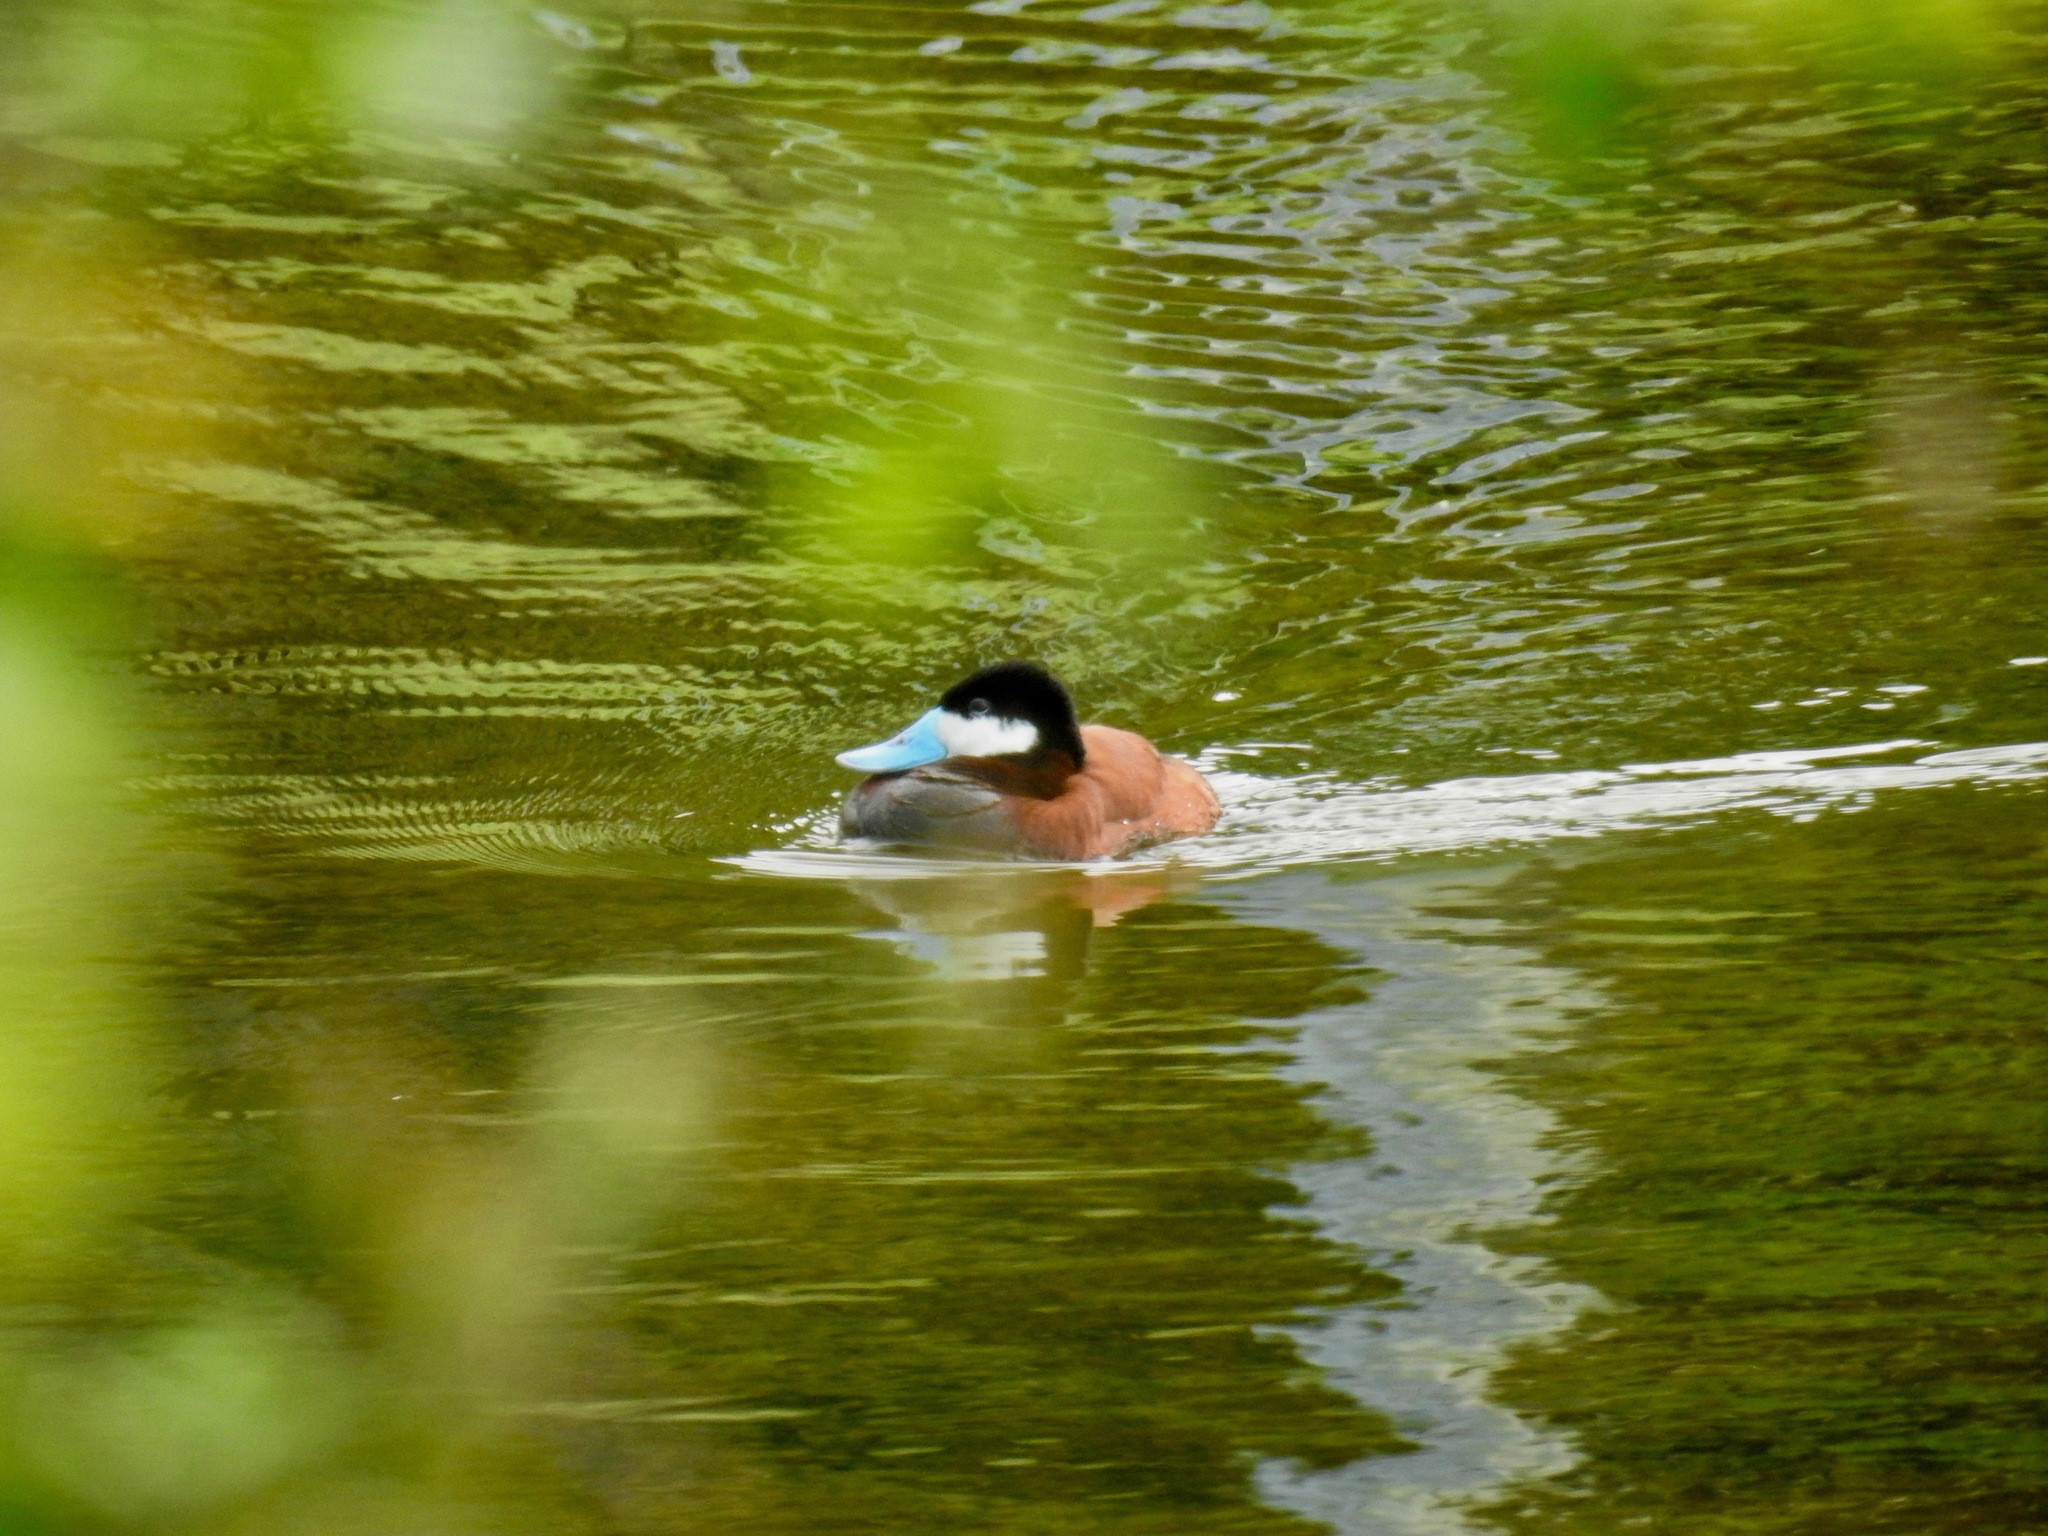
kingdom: Animalia
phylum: Chordata
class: Aves
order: Anseriformes
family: Anatidae
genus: Oxyura
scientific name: Oxyura jamaicensis
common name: Ruddy duck
